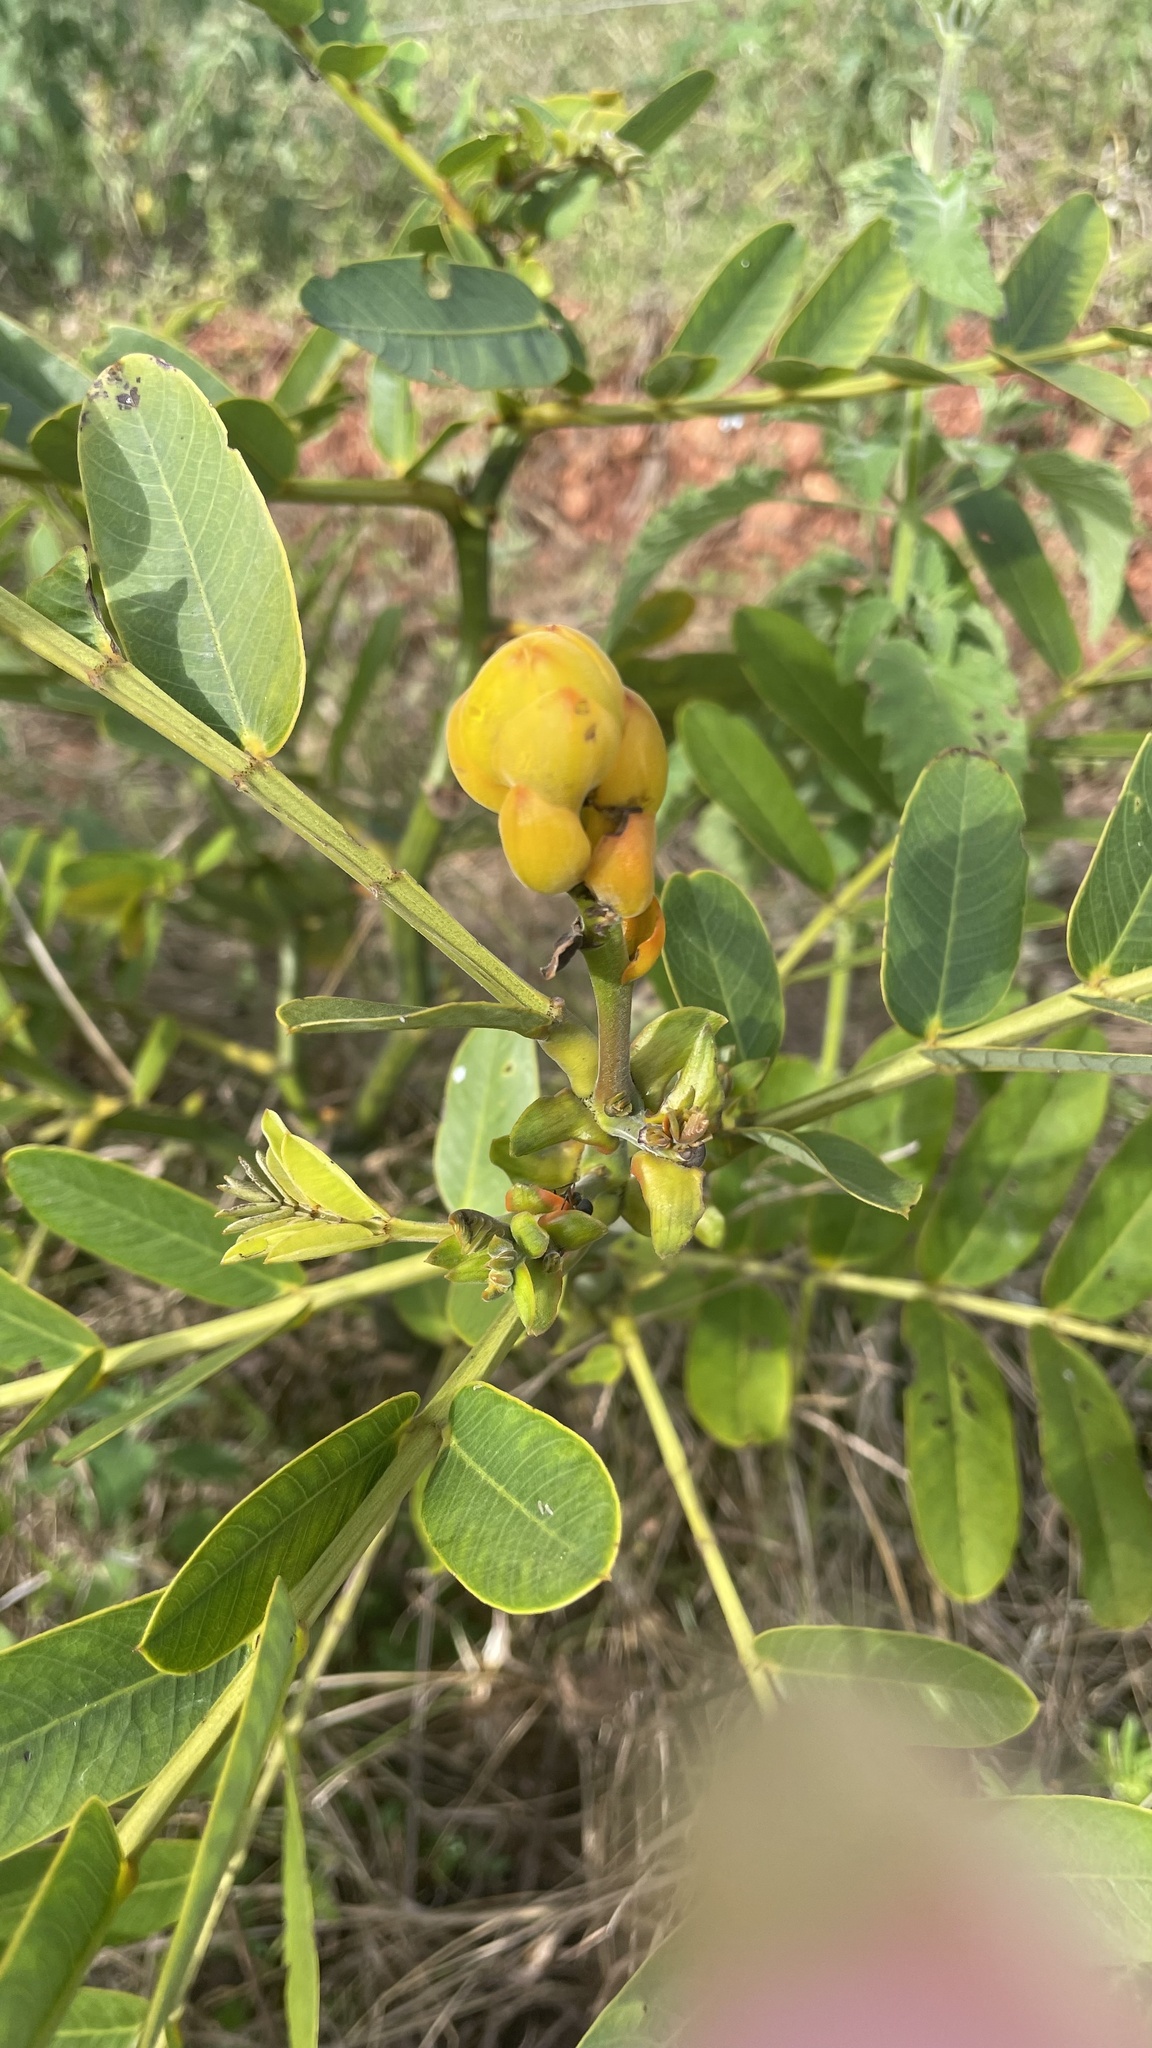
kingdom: Plantae
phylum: Tracheophyta
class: Magnoliopsida
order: Fabales
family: Fabaceae
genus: Senna
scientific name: Senna alata
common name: Emperor's candlesticks
